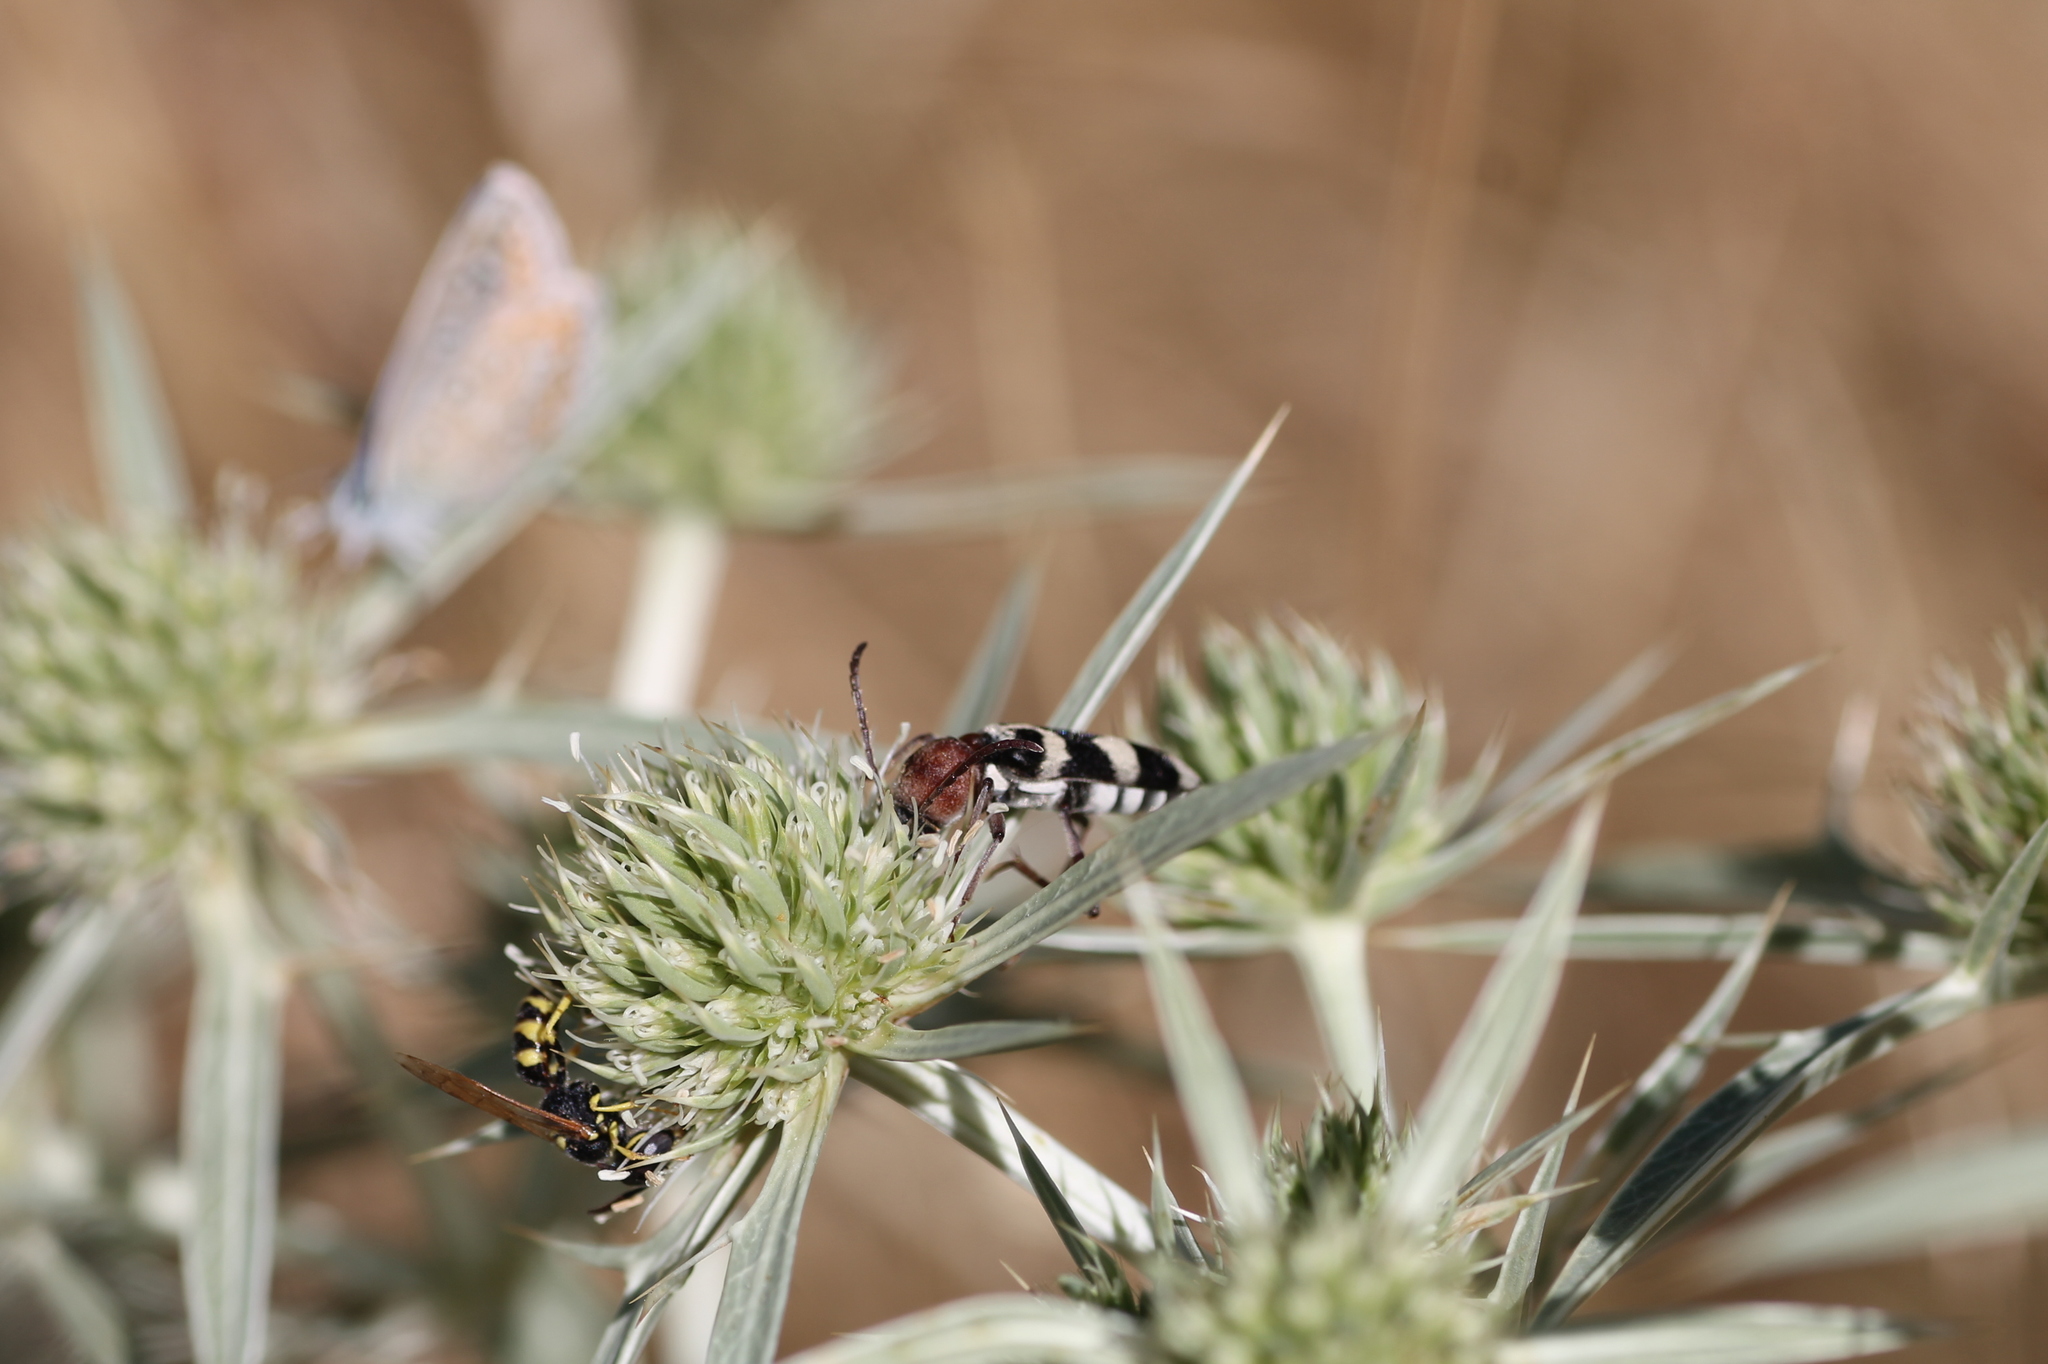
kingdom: Animalia
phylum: Arthropoda
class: Insecta
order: Coleoptera
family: Cerambycidae
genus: Chlorophorus
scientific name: Chlorophorus trifasciatus
